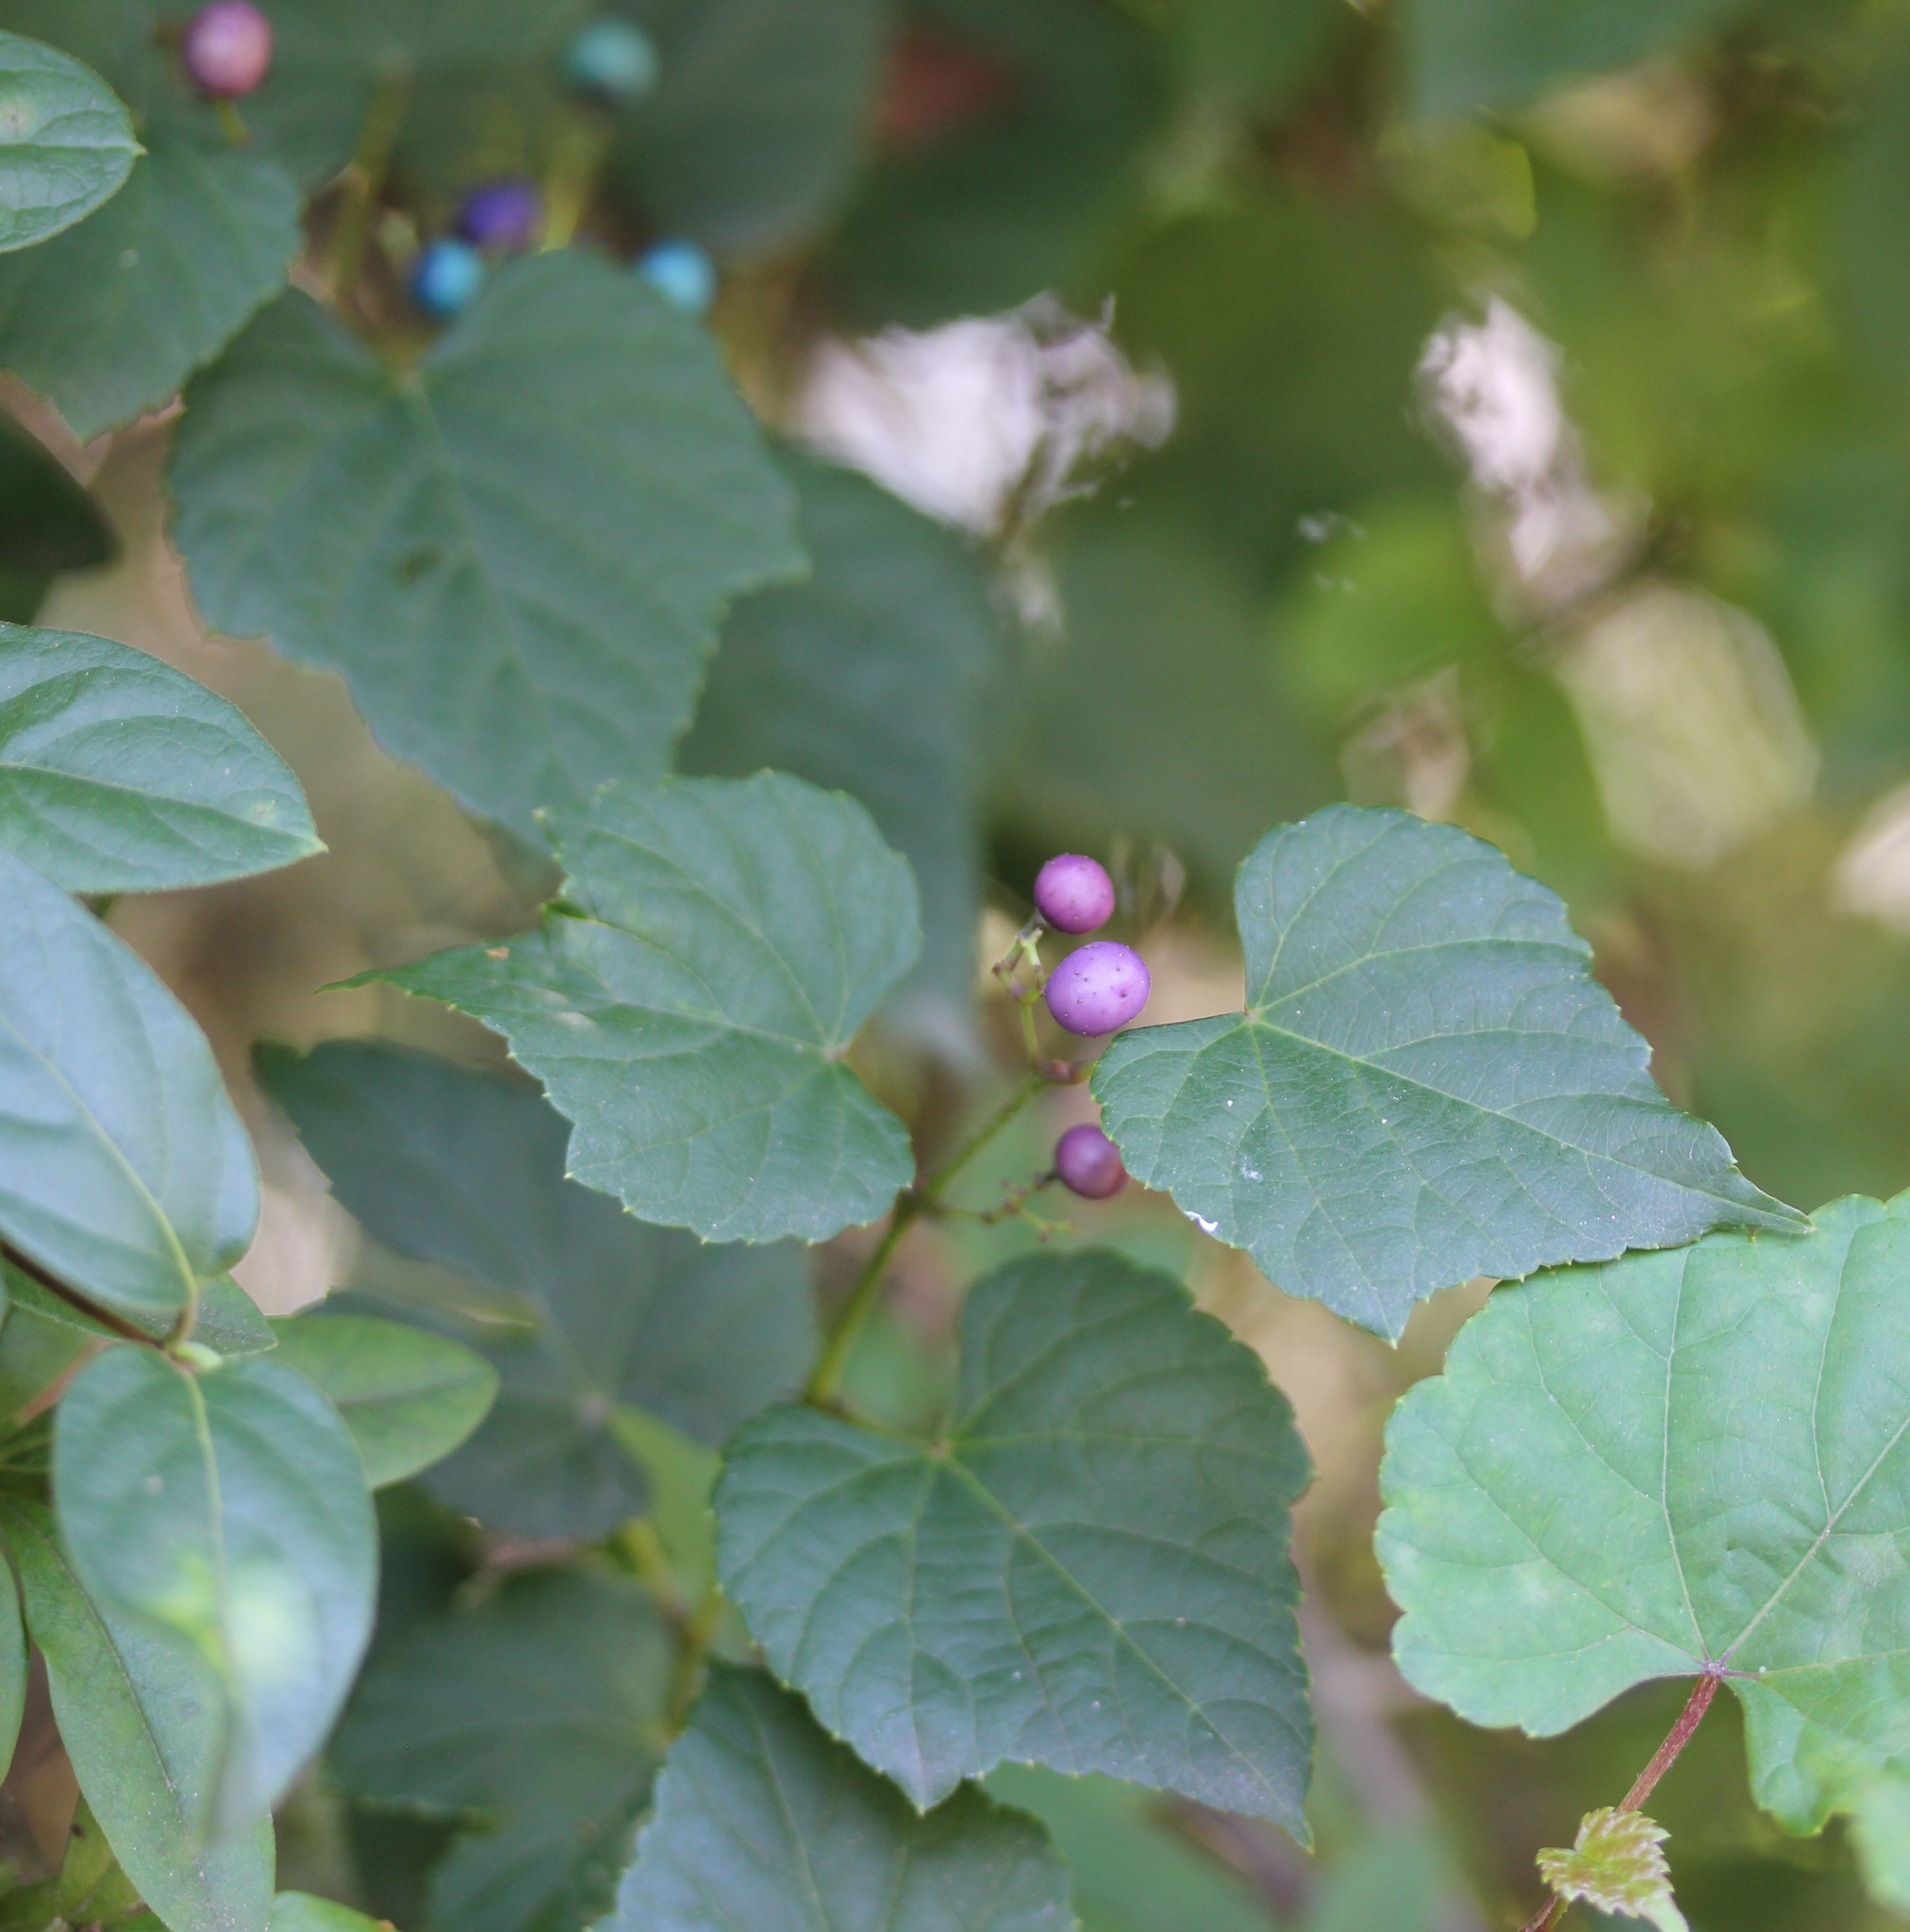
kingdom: Plantae
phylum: Tracheophyta
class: Magnoliopsida
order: Vitales
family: Vitaceae
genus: Ampelopsis
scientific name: Ampelopsis glandulosa
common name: Amur peppervine
